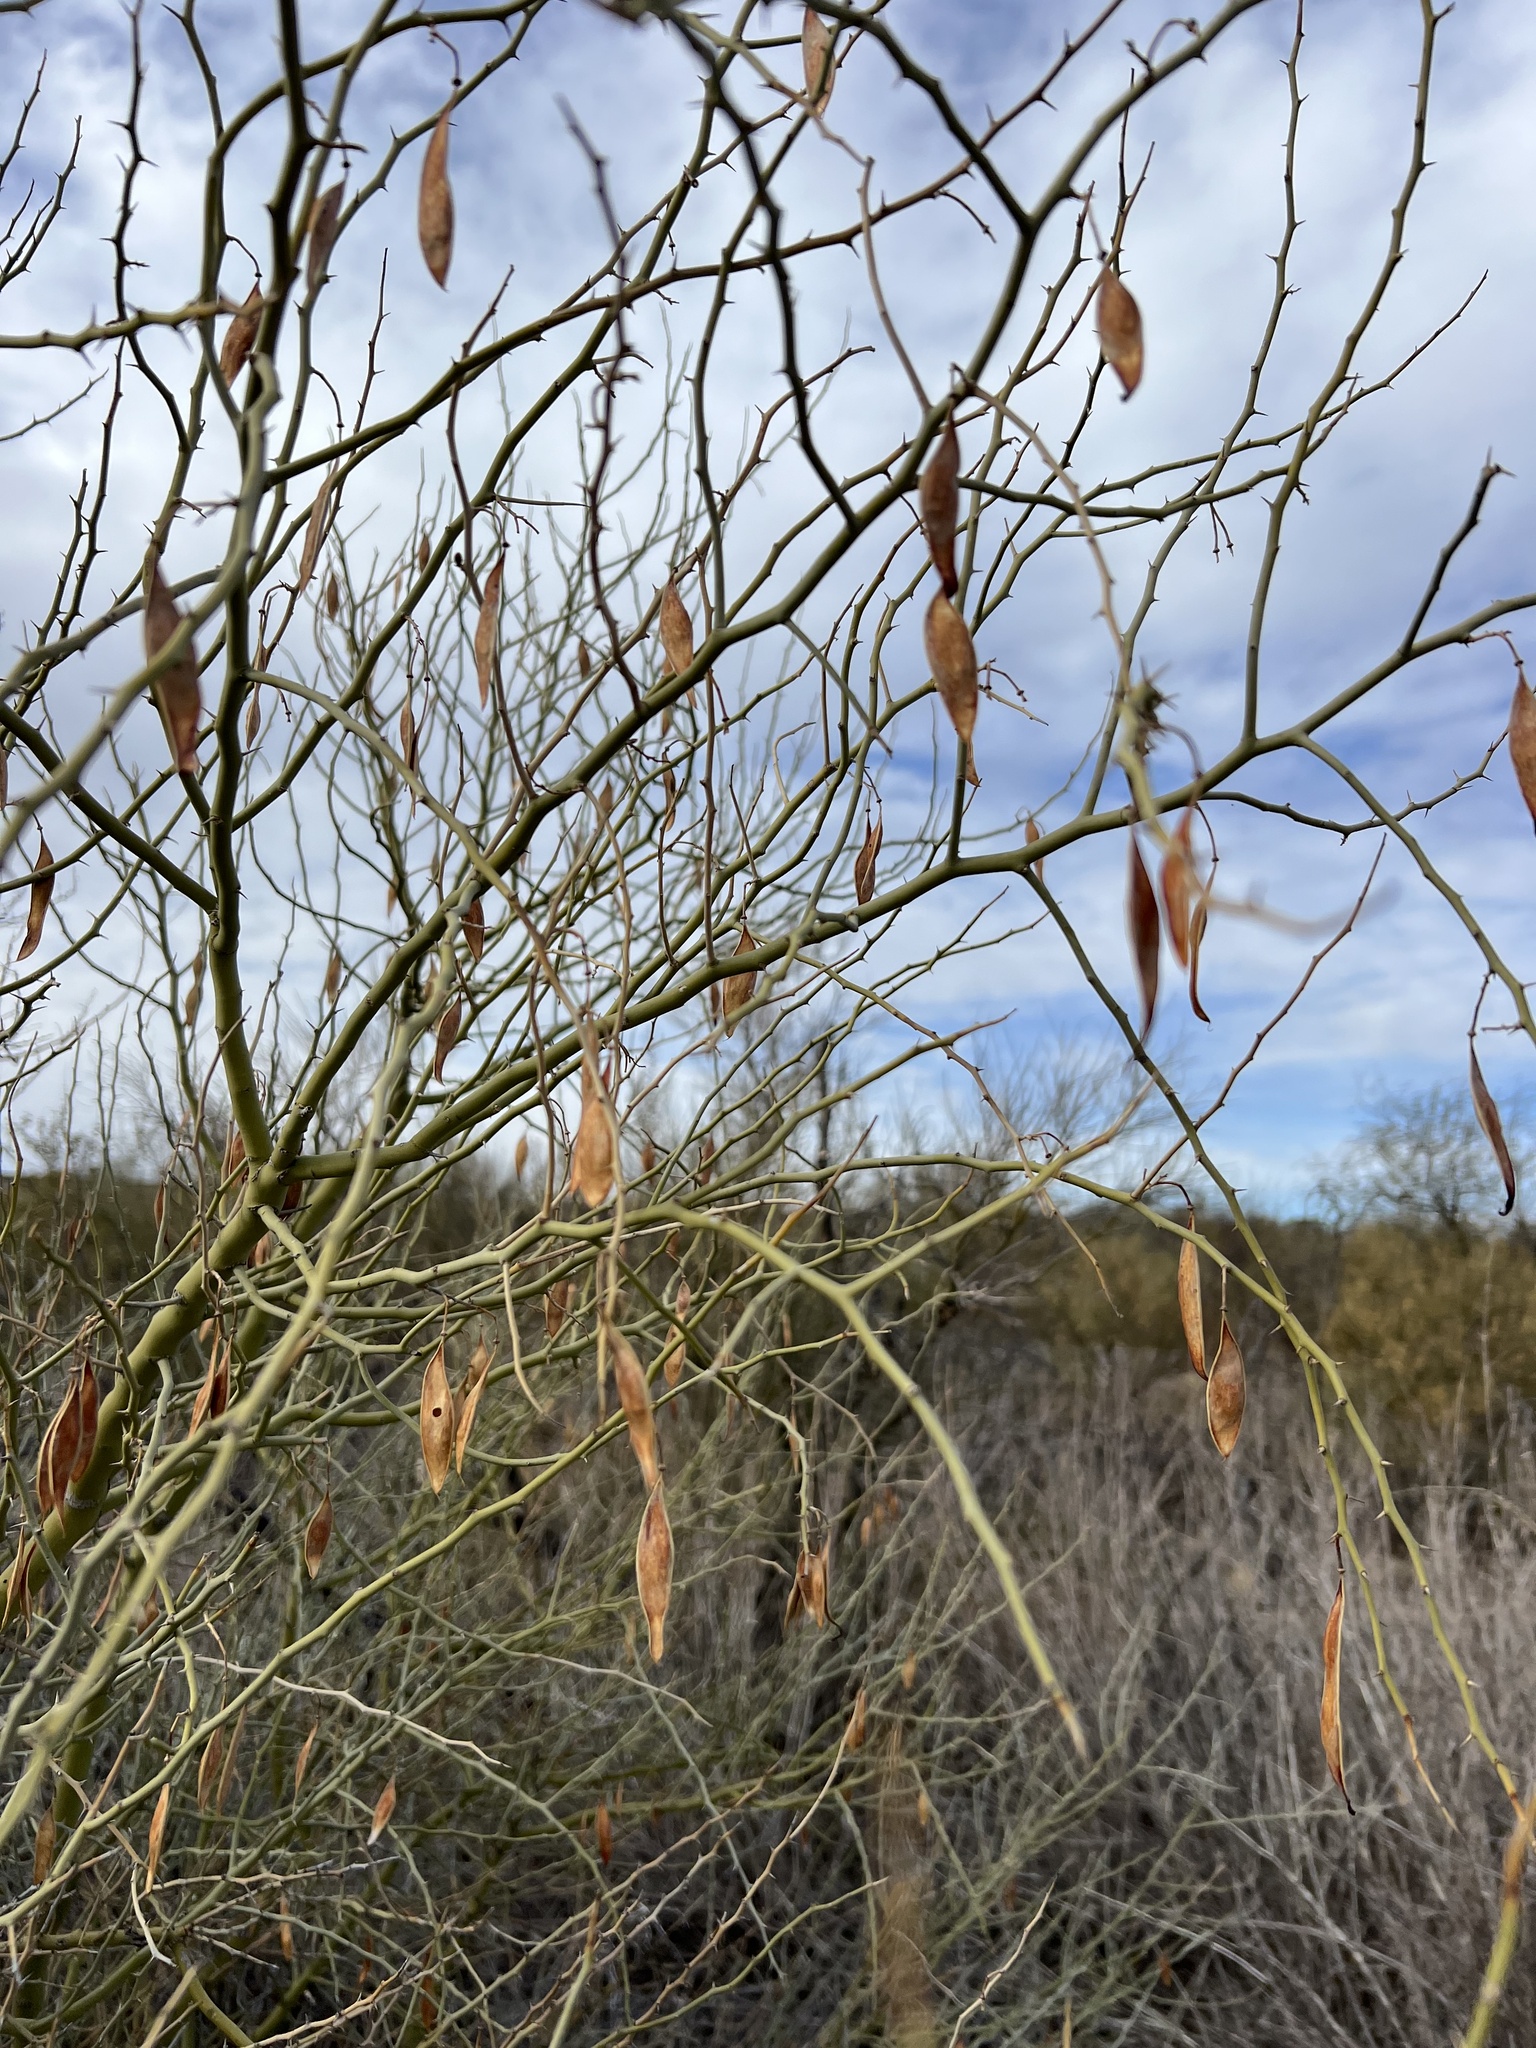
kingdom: Plantae
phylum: Tracheophyta
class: Magnoliopsida
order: Fabales
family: Fabaceae
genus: Parkinsonia
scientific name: Parkinsonia florida
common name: Blue paloverde
